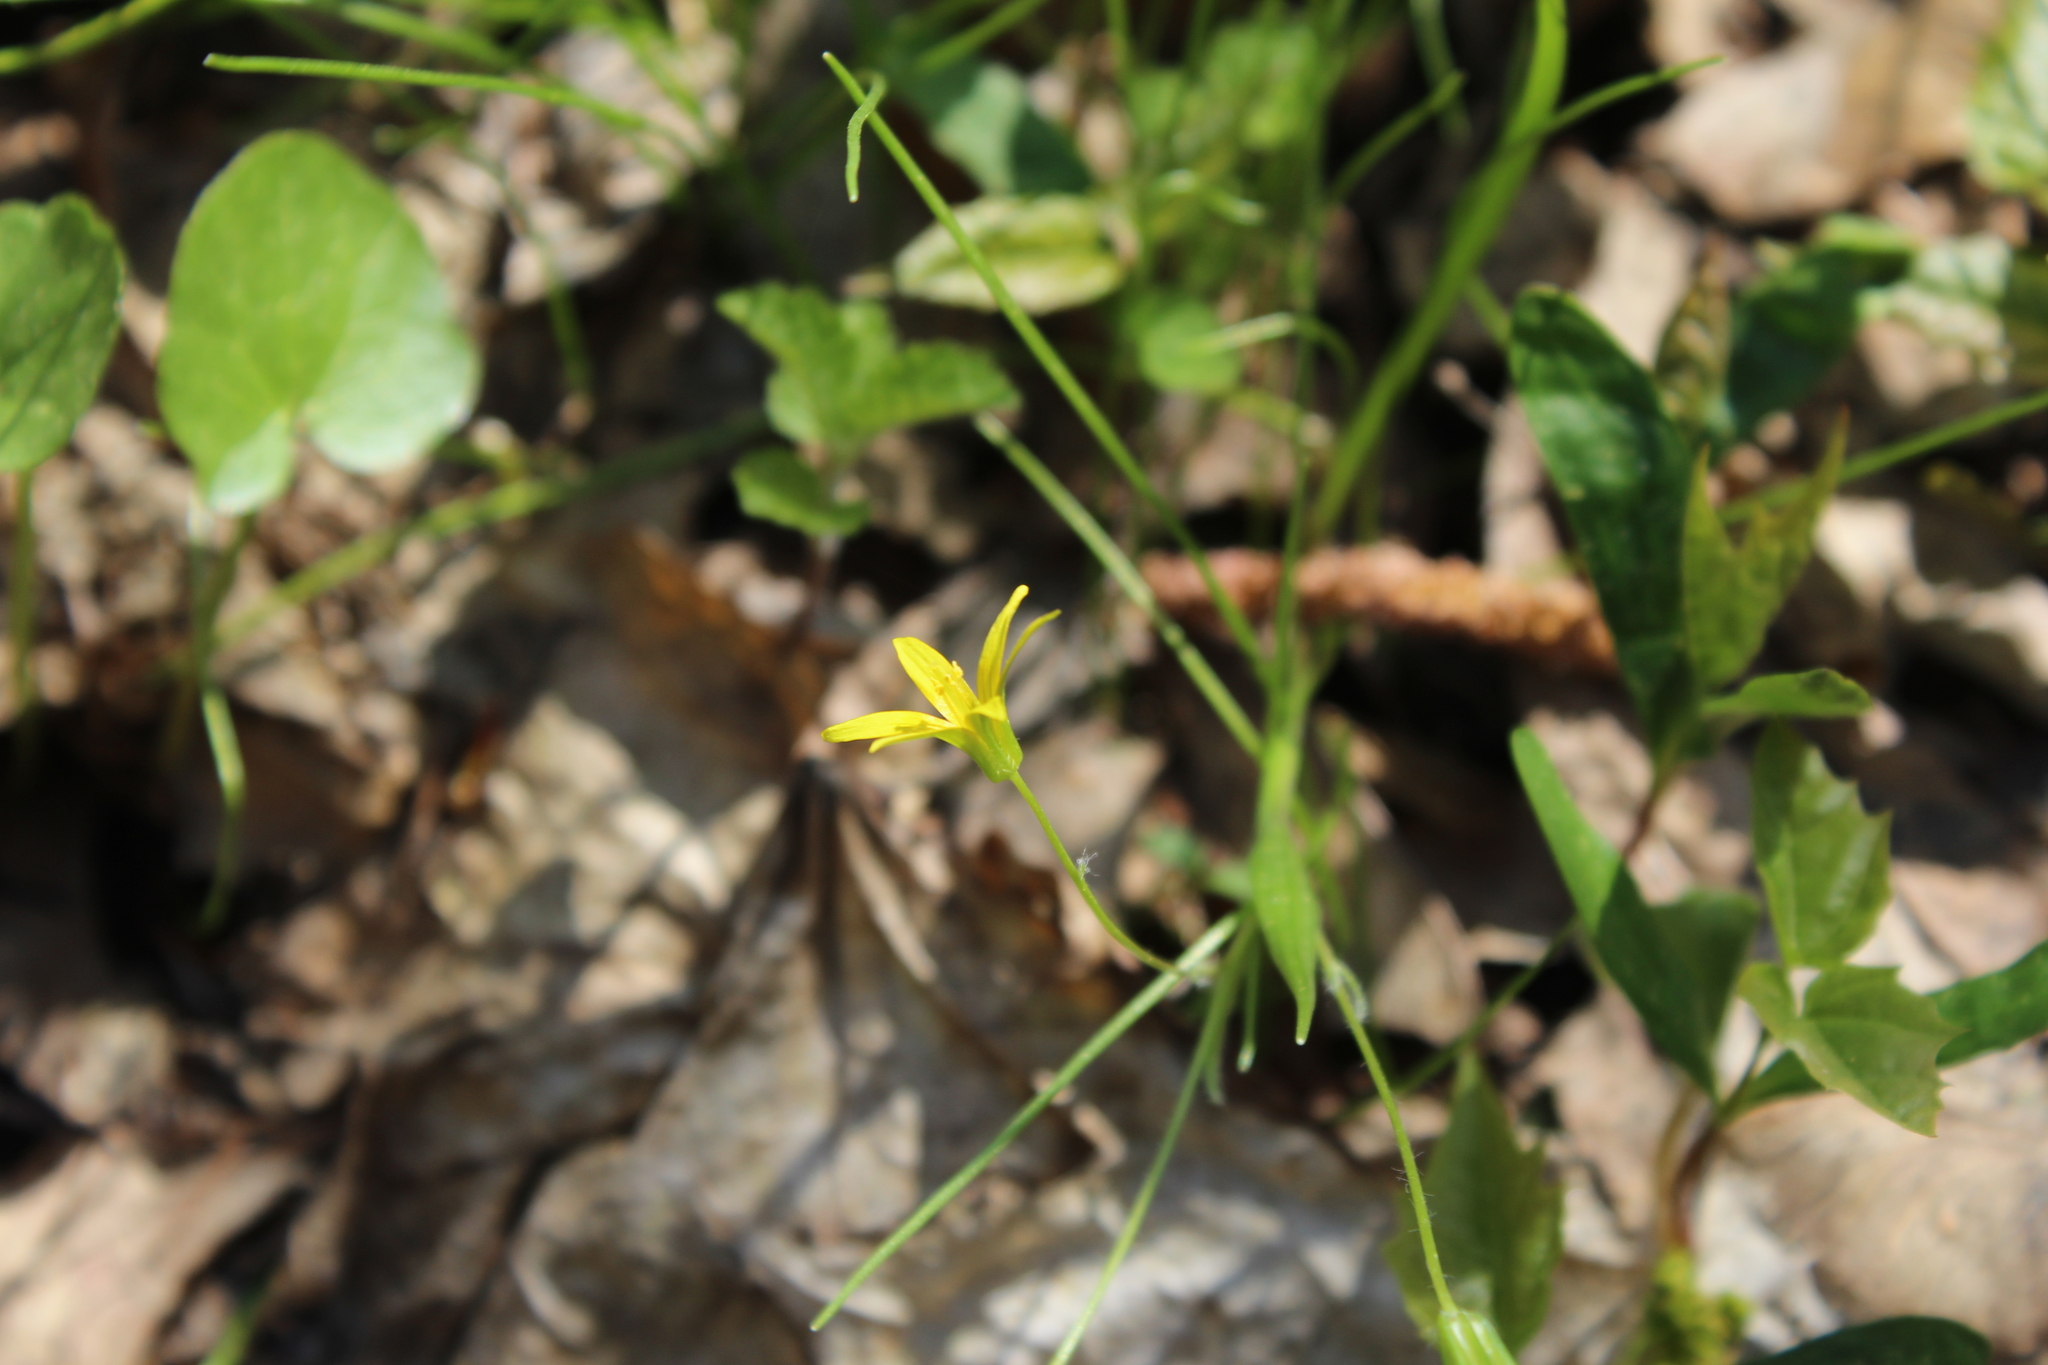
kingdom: Plantae
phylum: Tracheophyta
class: Liliopsida
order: Liliales
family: Liliaceae
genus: Gagea
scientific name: Gagea minima
